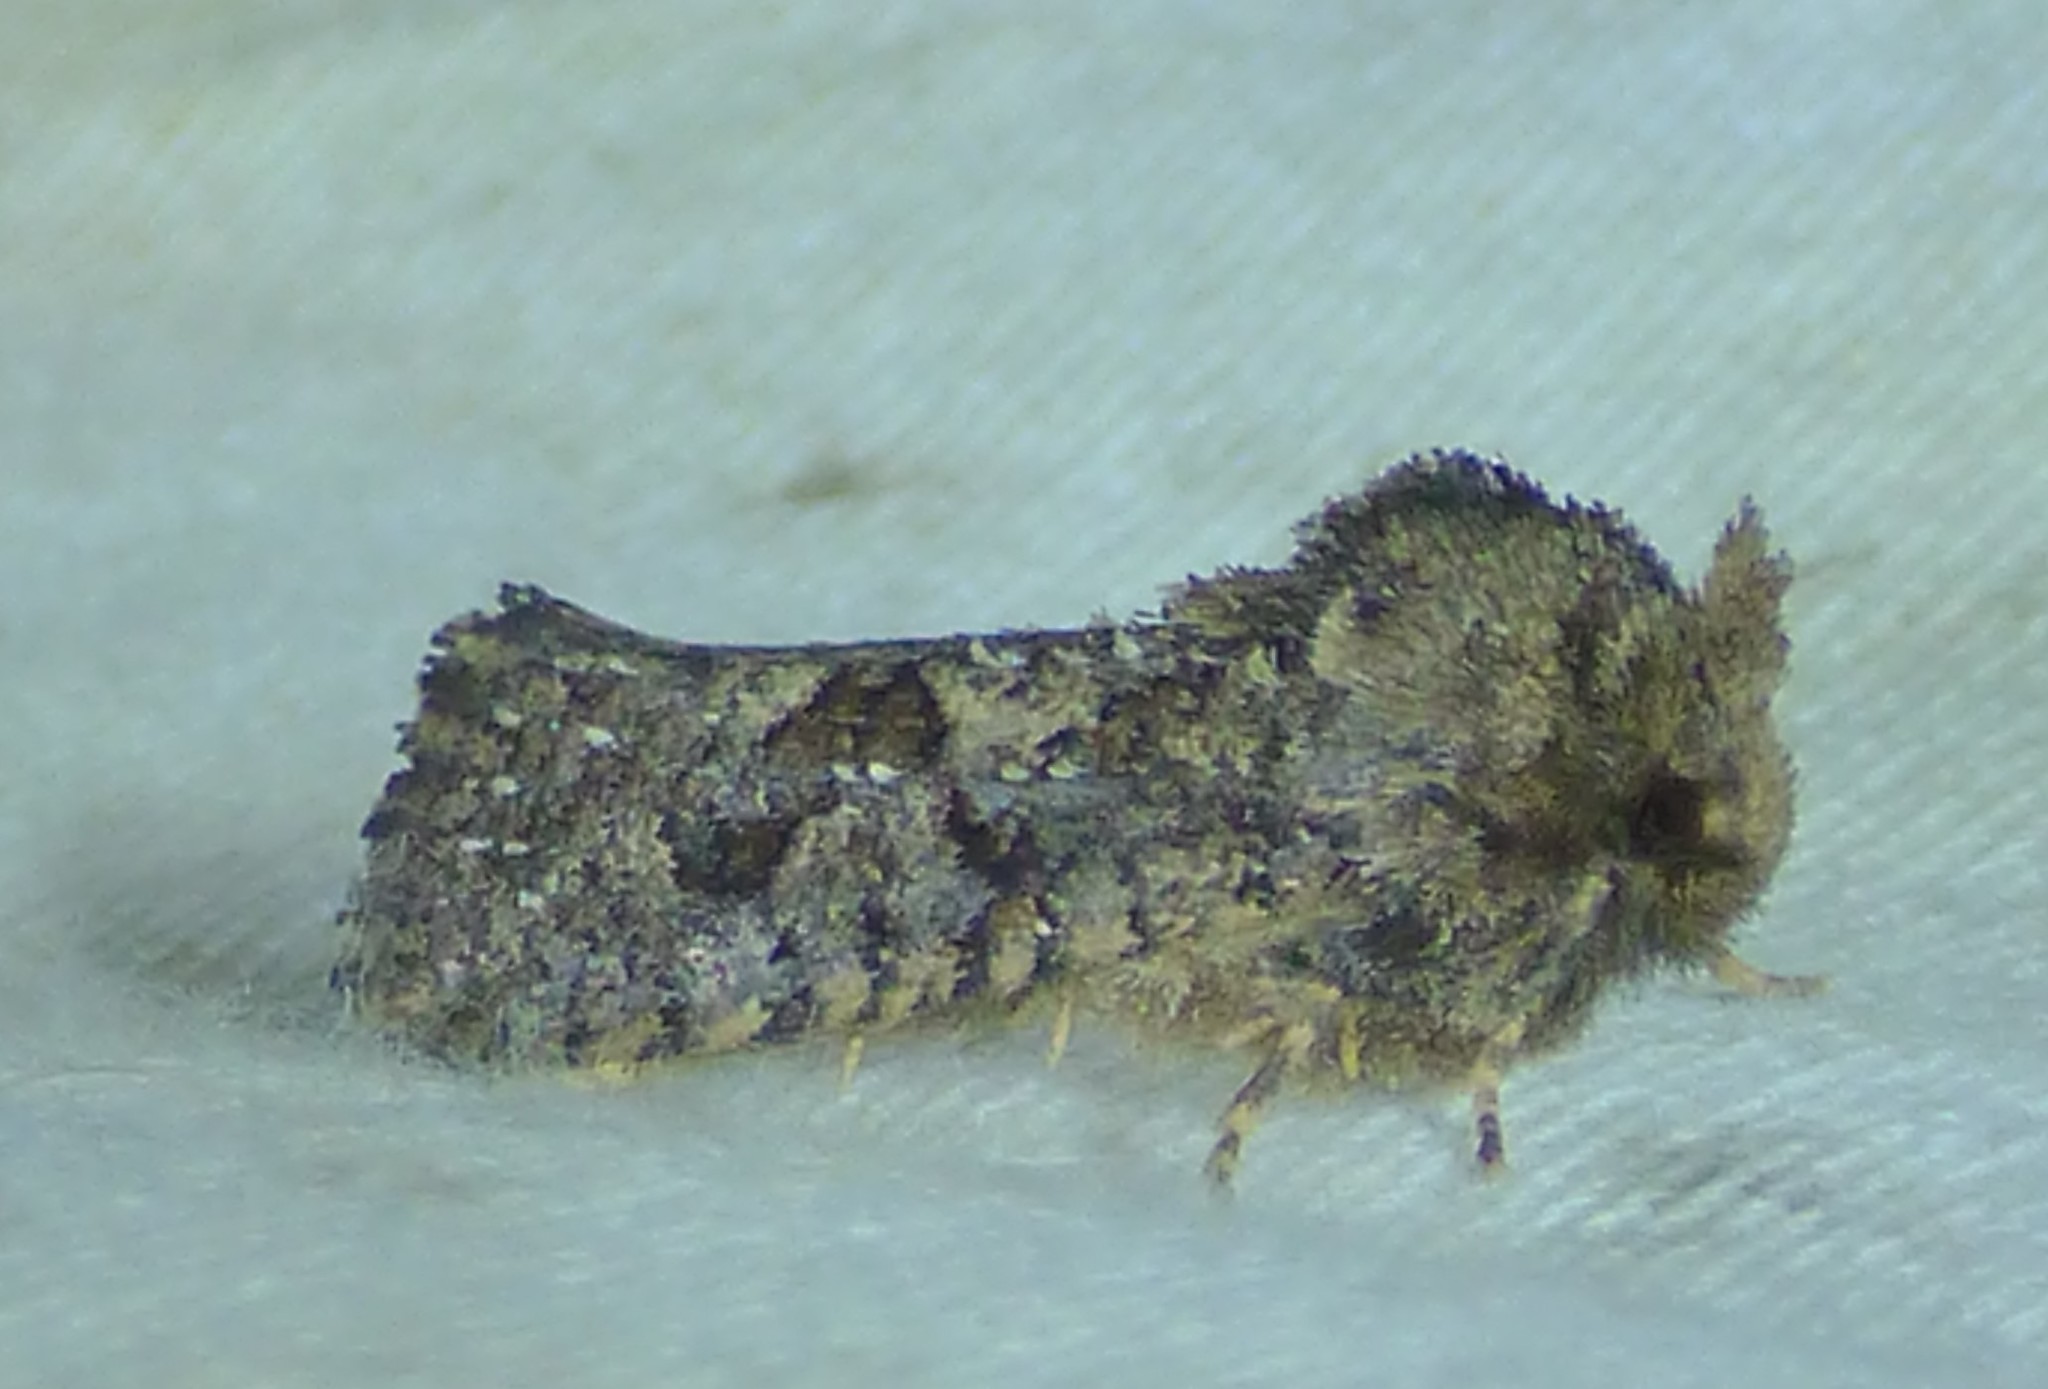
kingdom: Animalia
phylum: Arthropoda
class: Insecta
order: Lepidoptera
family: Tineidae
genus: Acrolophus
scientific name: Acrolophus arcanella
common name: Arcane grass tubeworm moth
